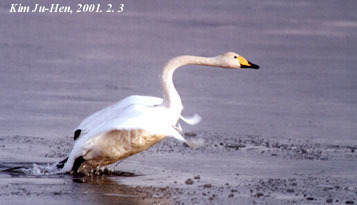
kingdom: Animalia
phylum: Chordata
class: Aves
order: Anseriformes
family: Anatidae
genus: Cygnus
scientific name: Cygnus cygnus
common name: Whooper swan
